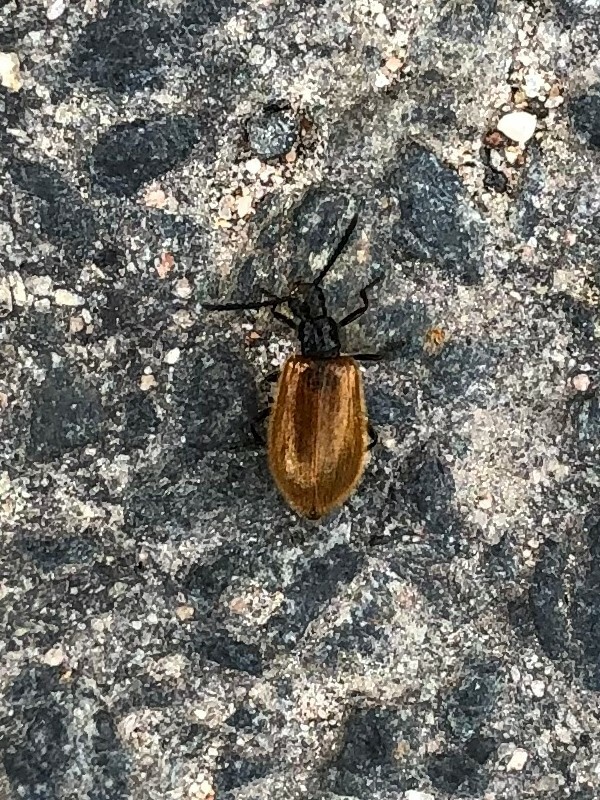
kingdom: Animalia
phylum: Arthropoda
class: Insecta
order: Coleoptera
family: Tenebrionidae
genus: Lagria
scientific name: Lagria hirta
